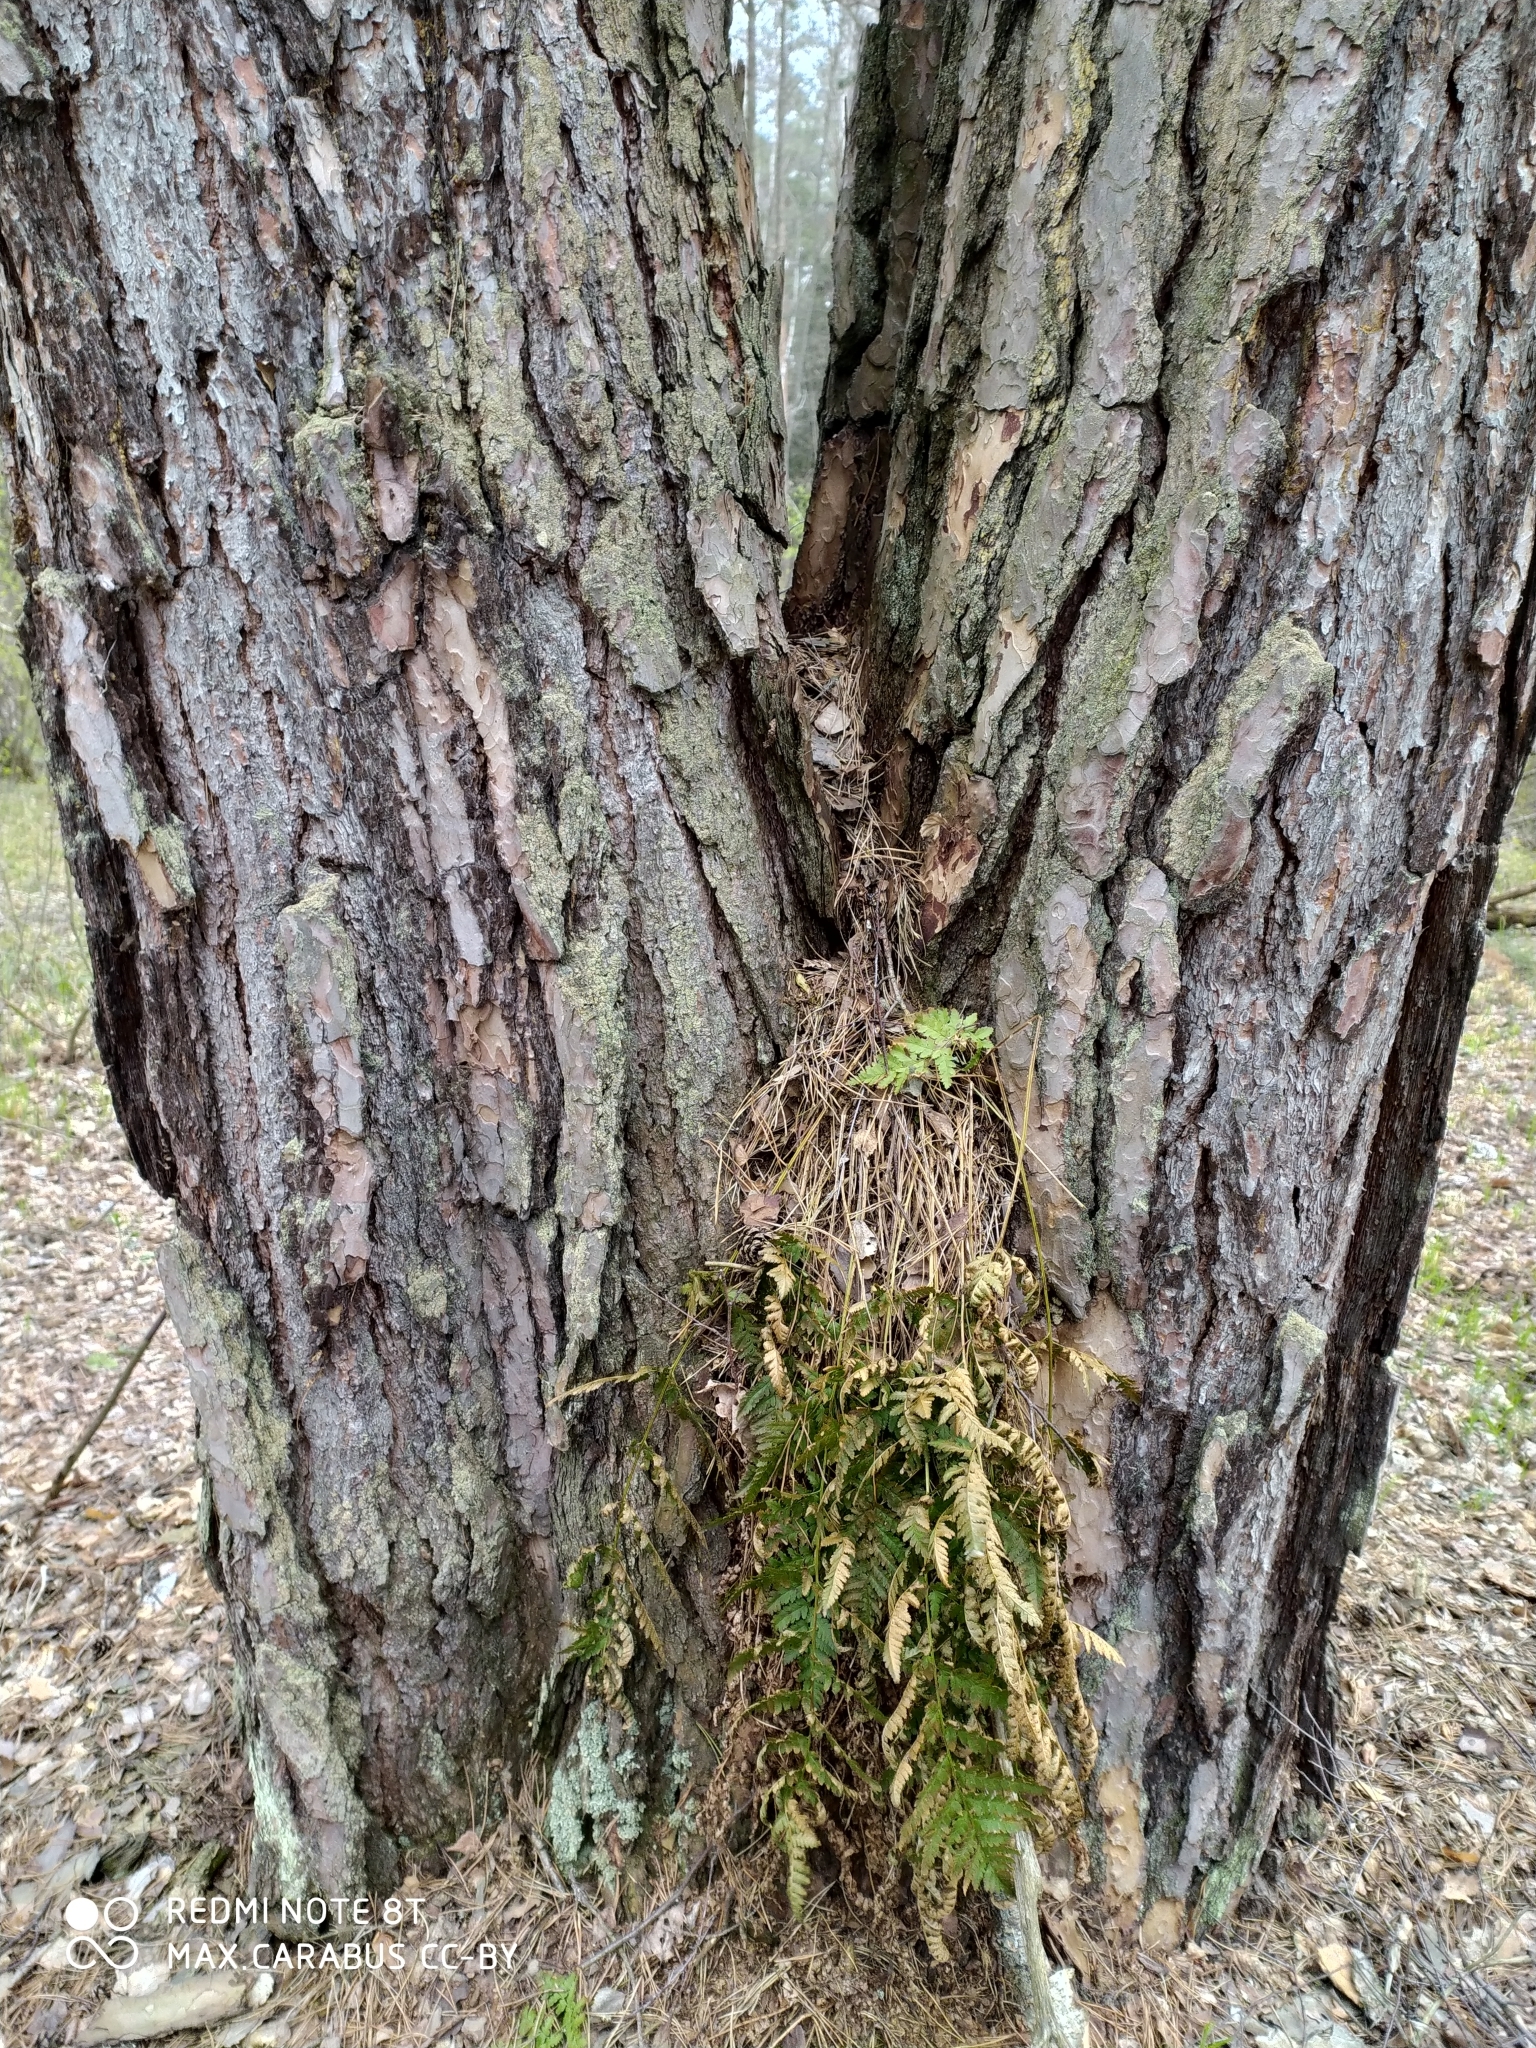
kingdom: Plantae
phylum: Tracheophyta
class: Pinopsida
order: Pinales
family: Pinaceae
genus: Pinus
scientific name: Pinus sylvestris
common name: Scots pine
